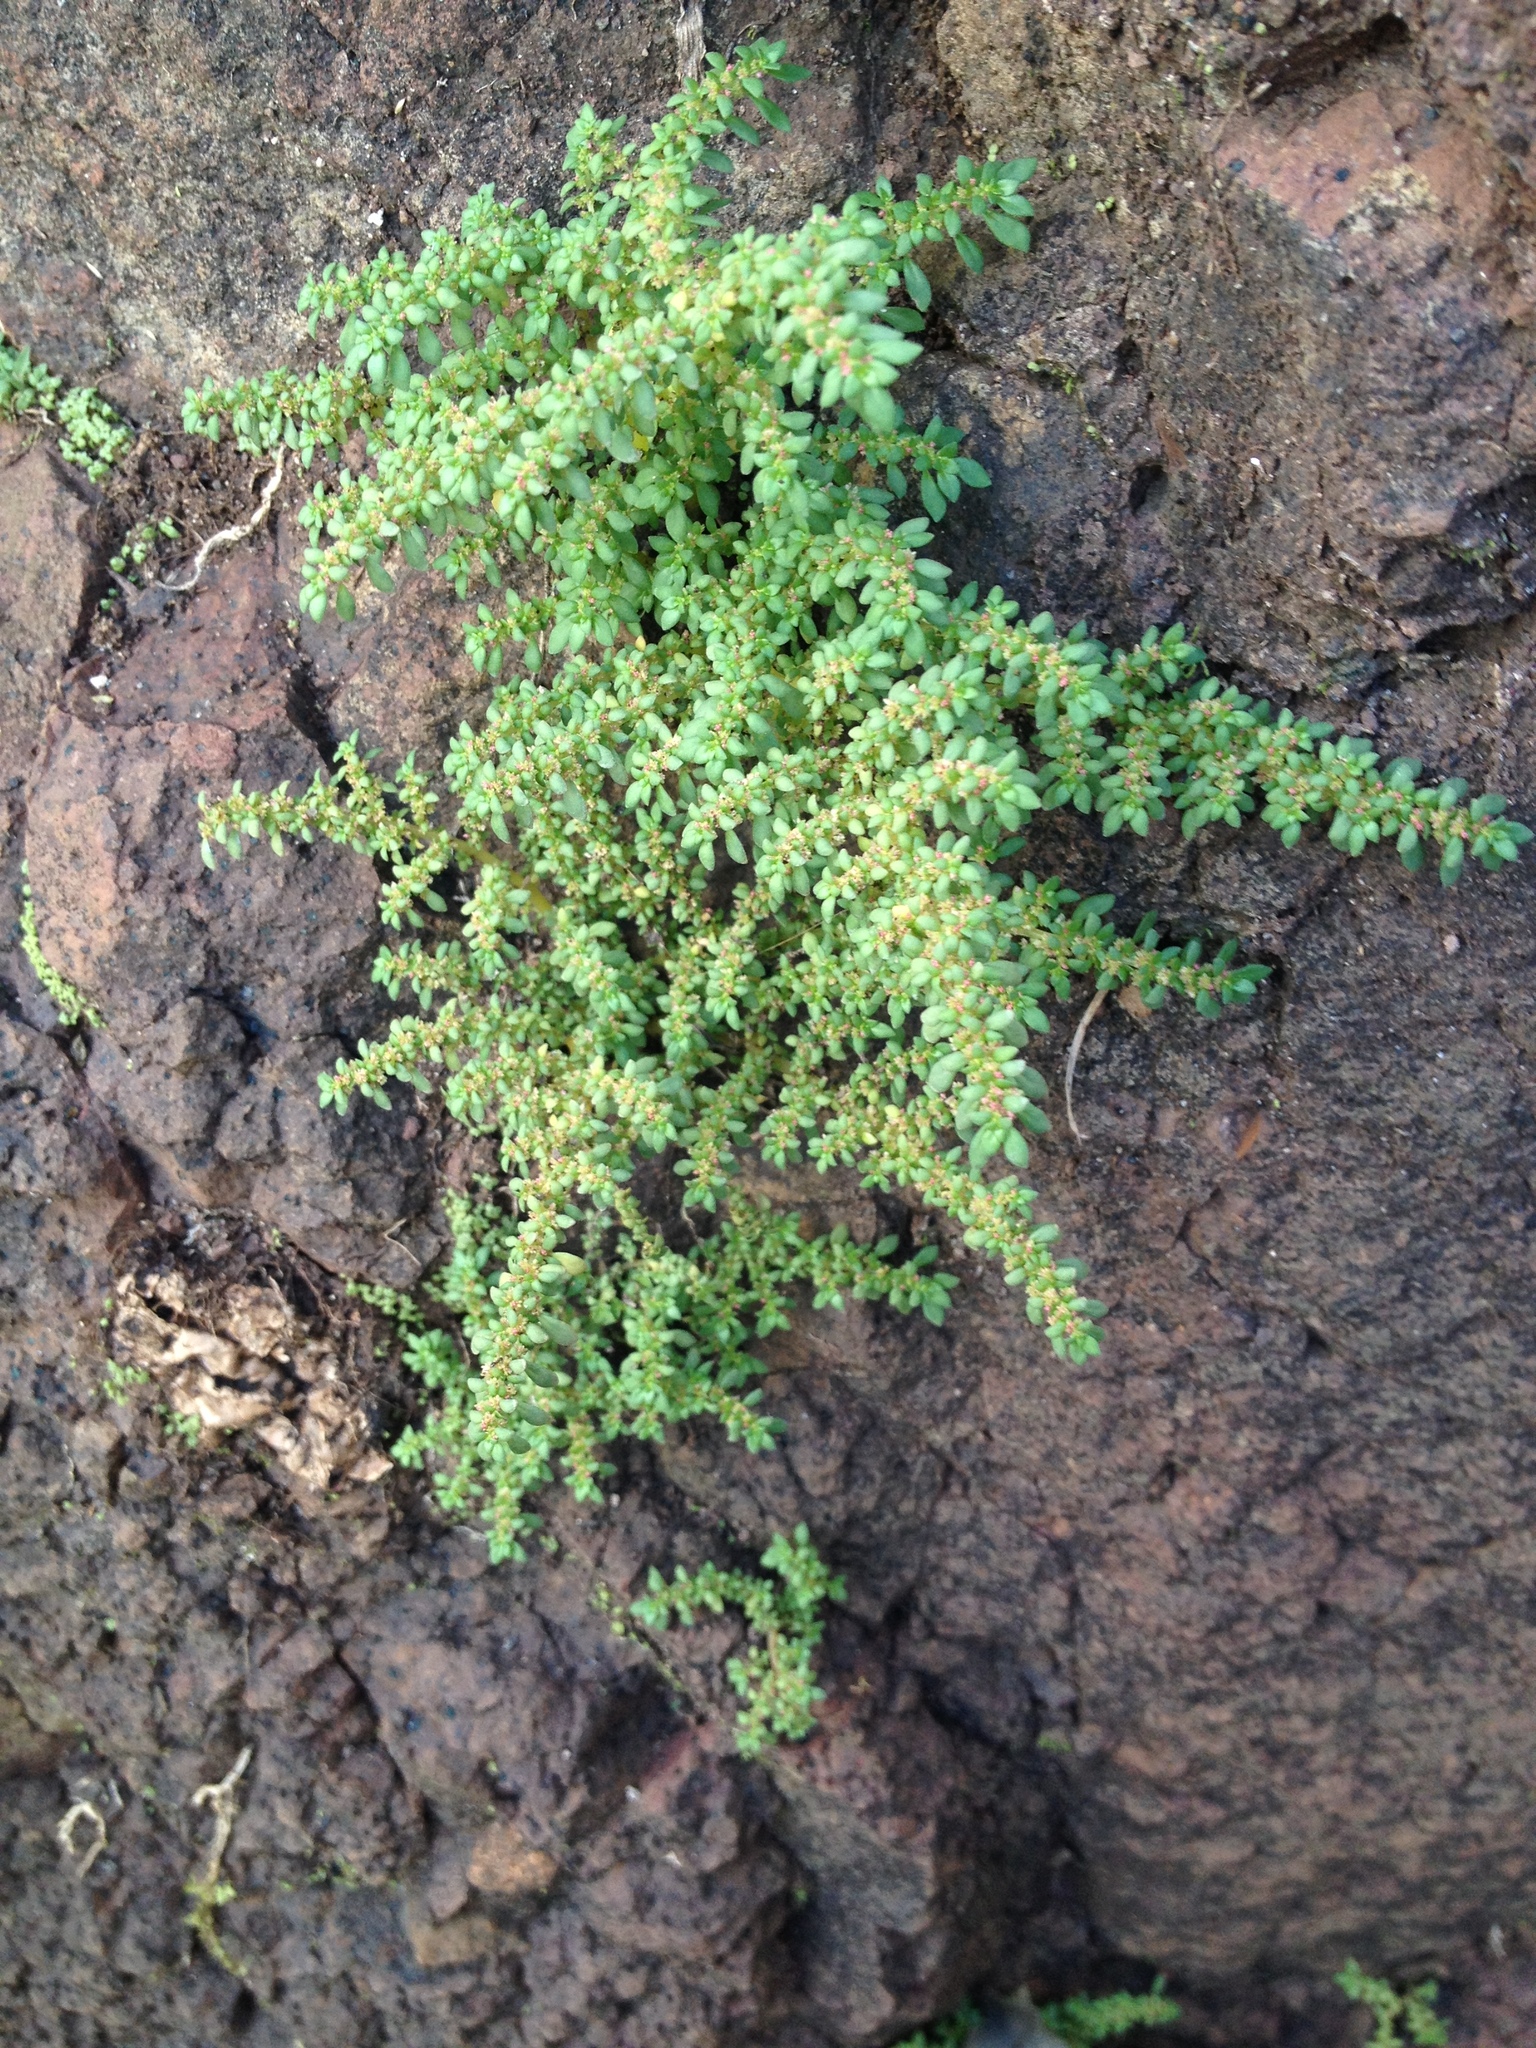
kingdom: Plantae
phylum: Tracheophyta
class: Magnoliopsida
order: Rosales
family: Urticaceae
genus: Pilea
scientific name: Pilea microphylla
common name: Artillery-plant
